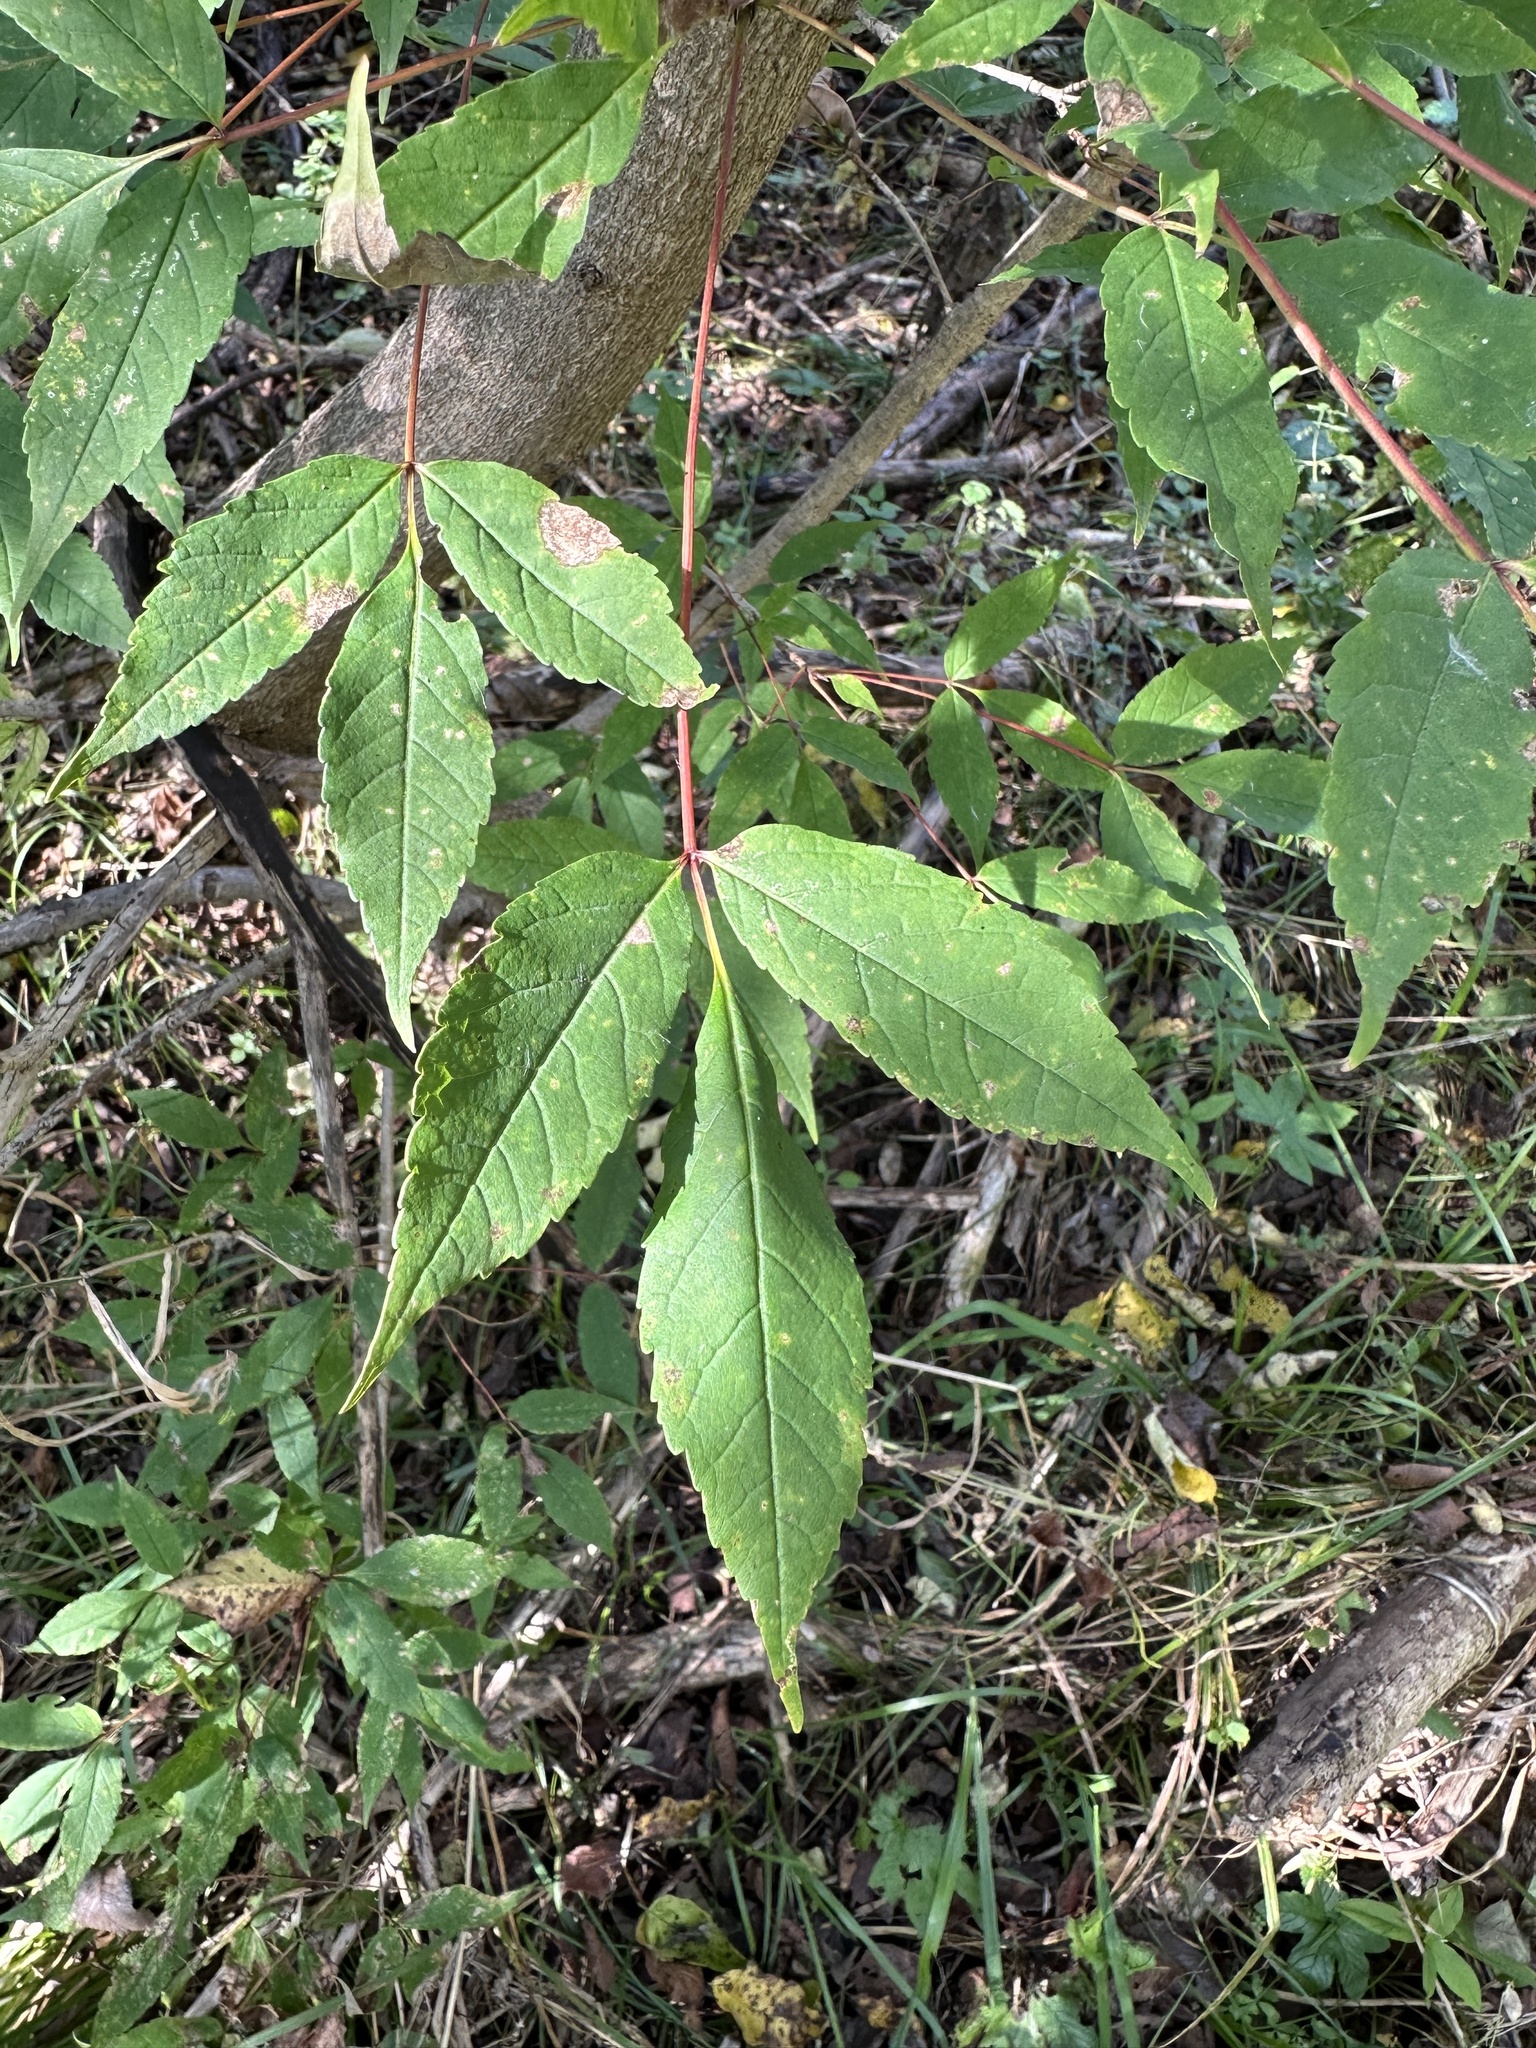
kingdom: Plantae
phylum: Tracheophyta
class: Magnoliopsida
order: Sapindales
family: Sapindaceae
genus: Acer
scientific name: Acer mandshuricum
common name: Manchurian maple
